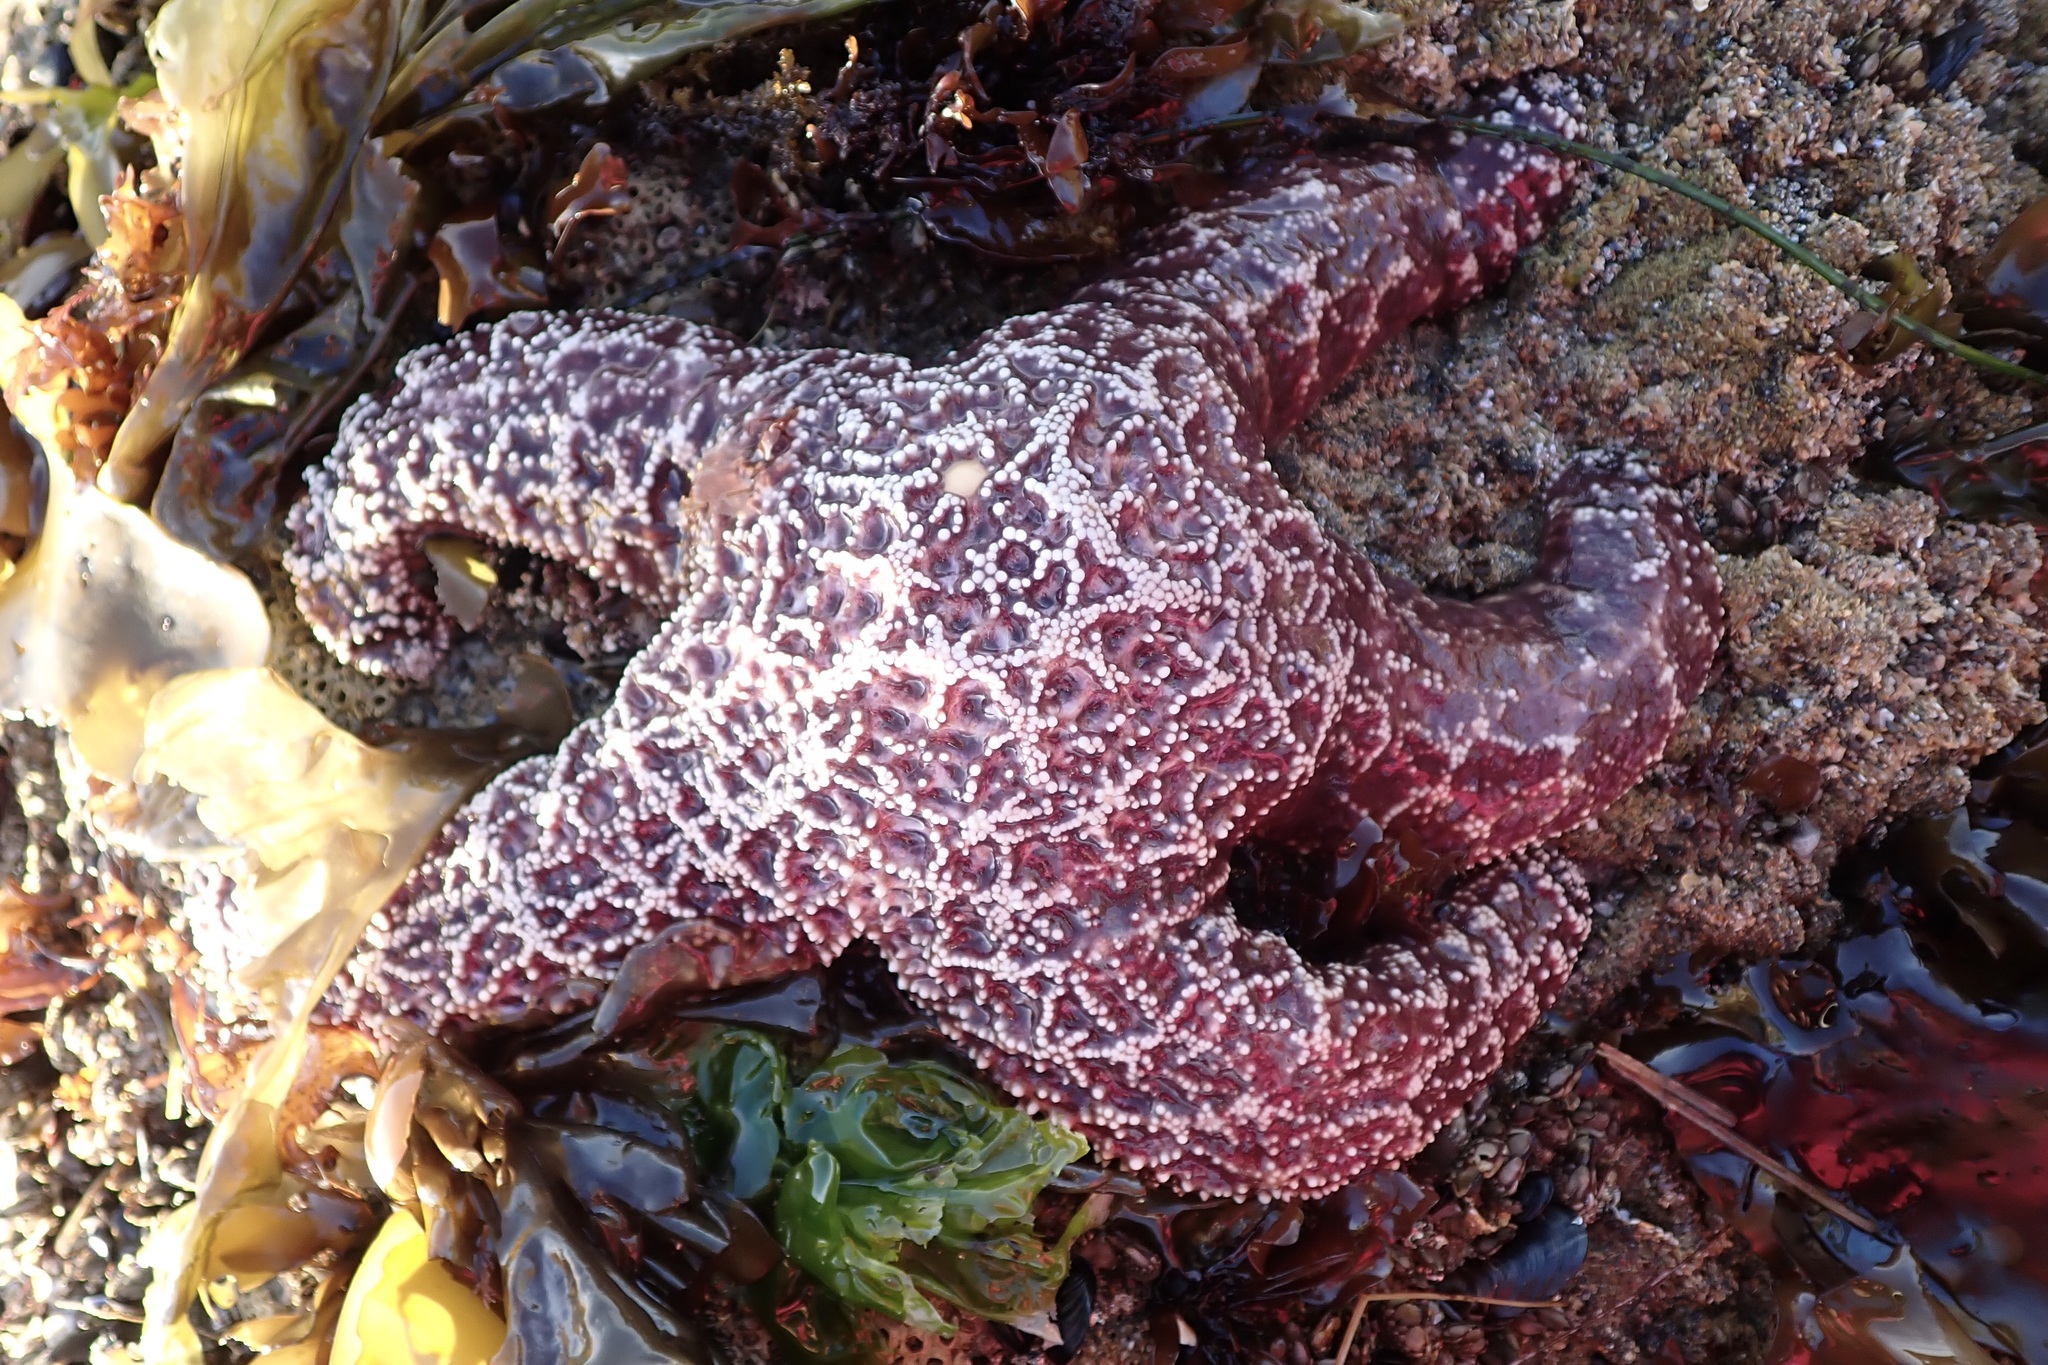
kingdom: Animalia
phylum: Echinodermata
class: Asteroidea
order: Forcipulatida
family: Asteriidae
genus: Pisaster
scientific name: Pisaster ochraceus
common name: Ochre stars
